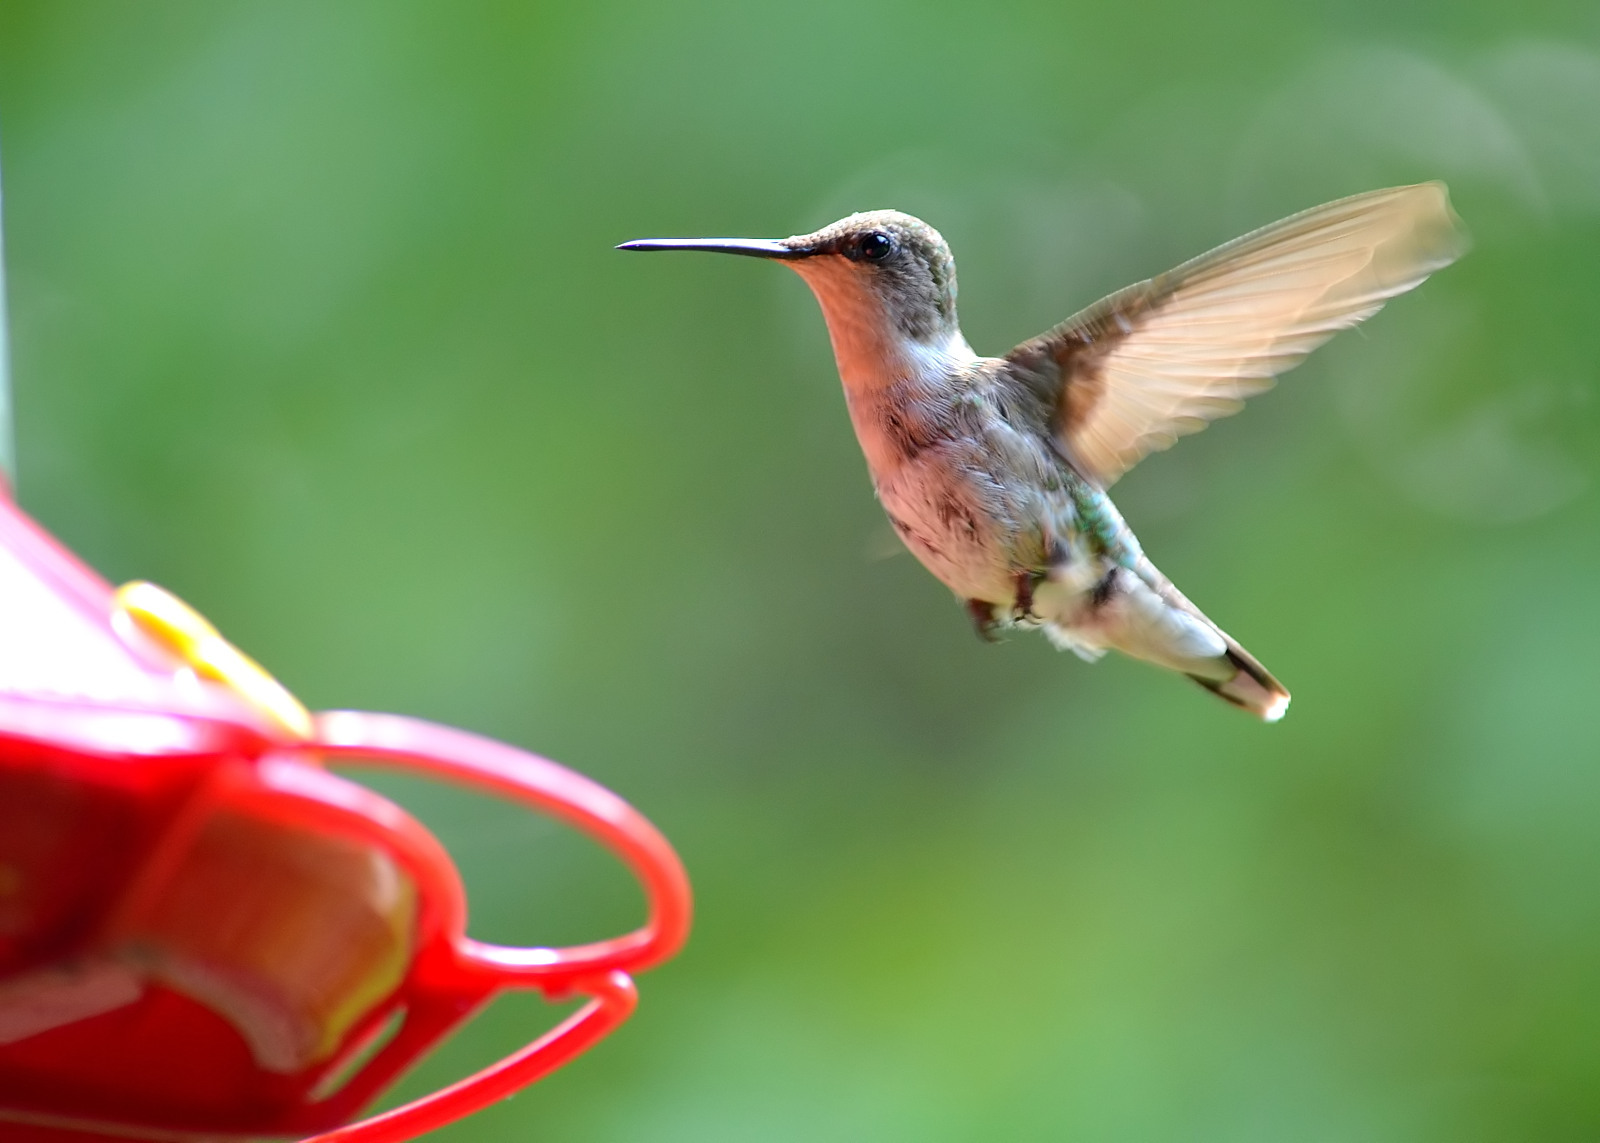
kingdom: Animalia
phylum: Chordata
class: Aves
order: Apodiformes
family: Trochilidae
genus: Archilochus
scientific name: Archilochus colubris
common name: Ruby-throated hummingbird
